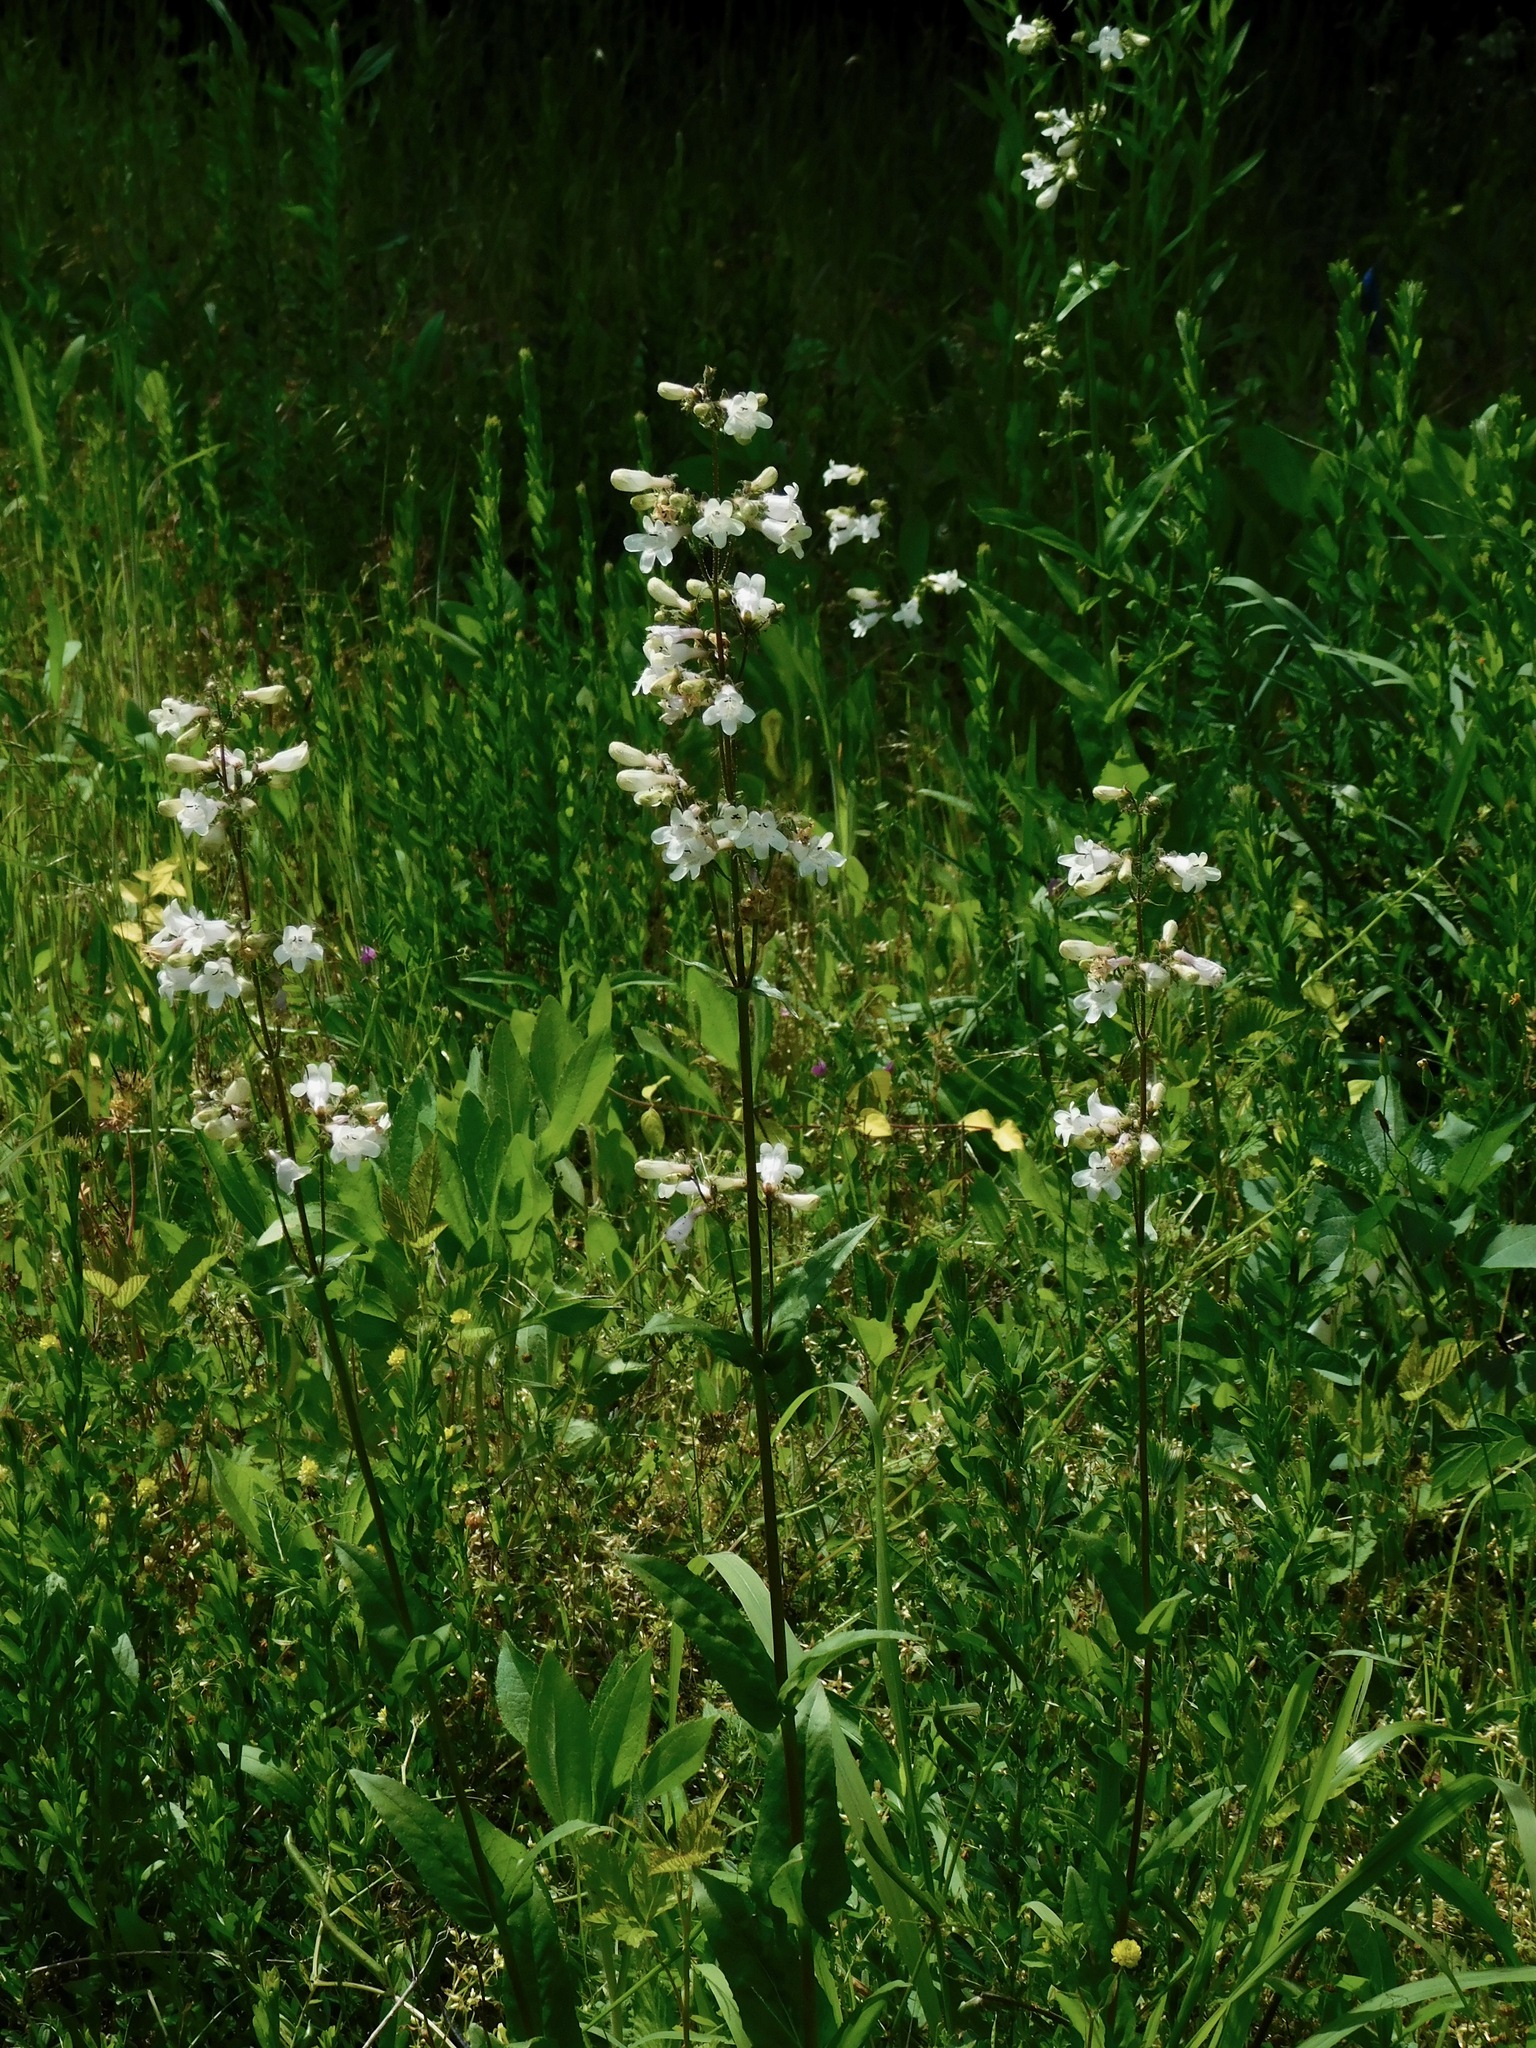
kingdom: Plantae
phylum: Tracheophyta
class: Magnoliopsida
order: Lamiales
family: Plantaginaceae
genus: Penstemon
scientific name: Penstemon digitalis
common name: Foxglove beardtongue
